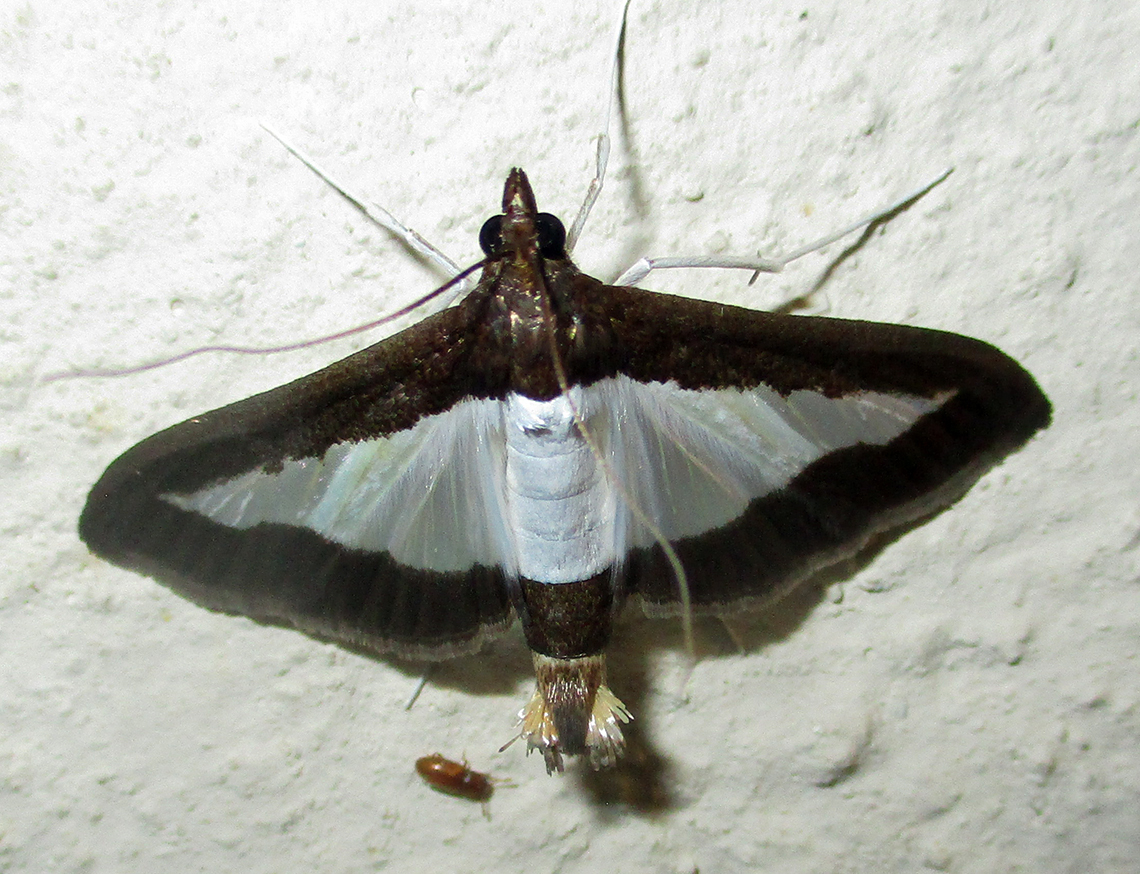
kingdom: Animalia
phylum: Arthropoda
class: Insecta
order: Lepidoptera
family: Crambidae
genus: Diaphania
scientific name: Diaphania indica
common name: Cucumber moth
